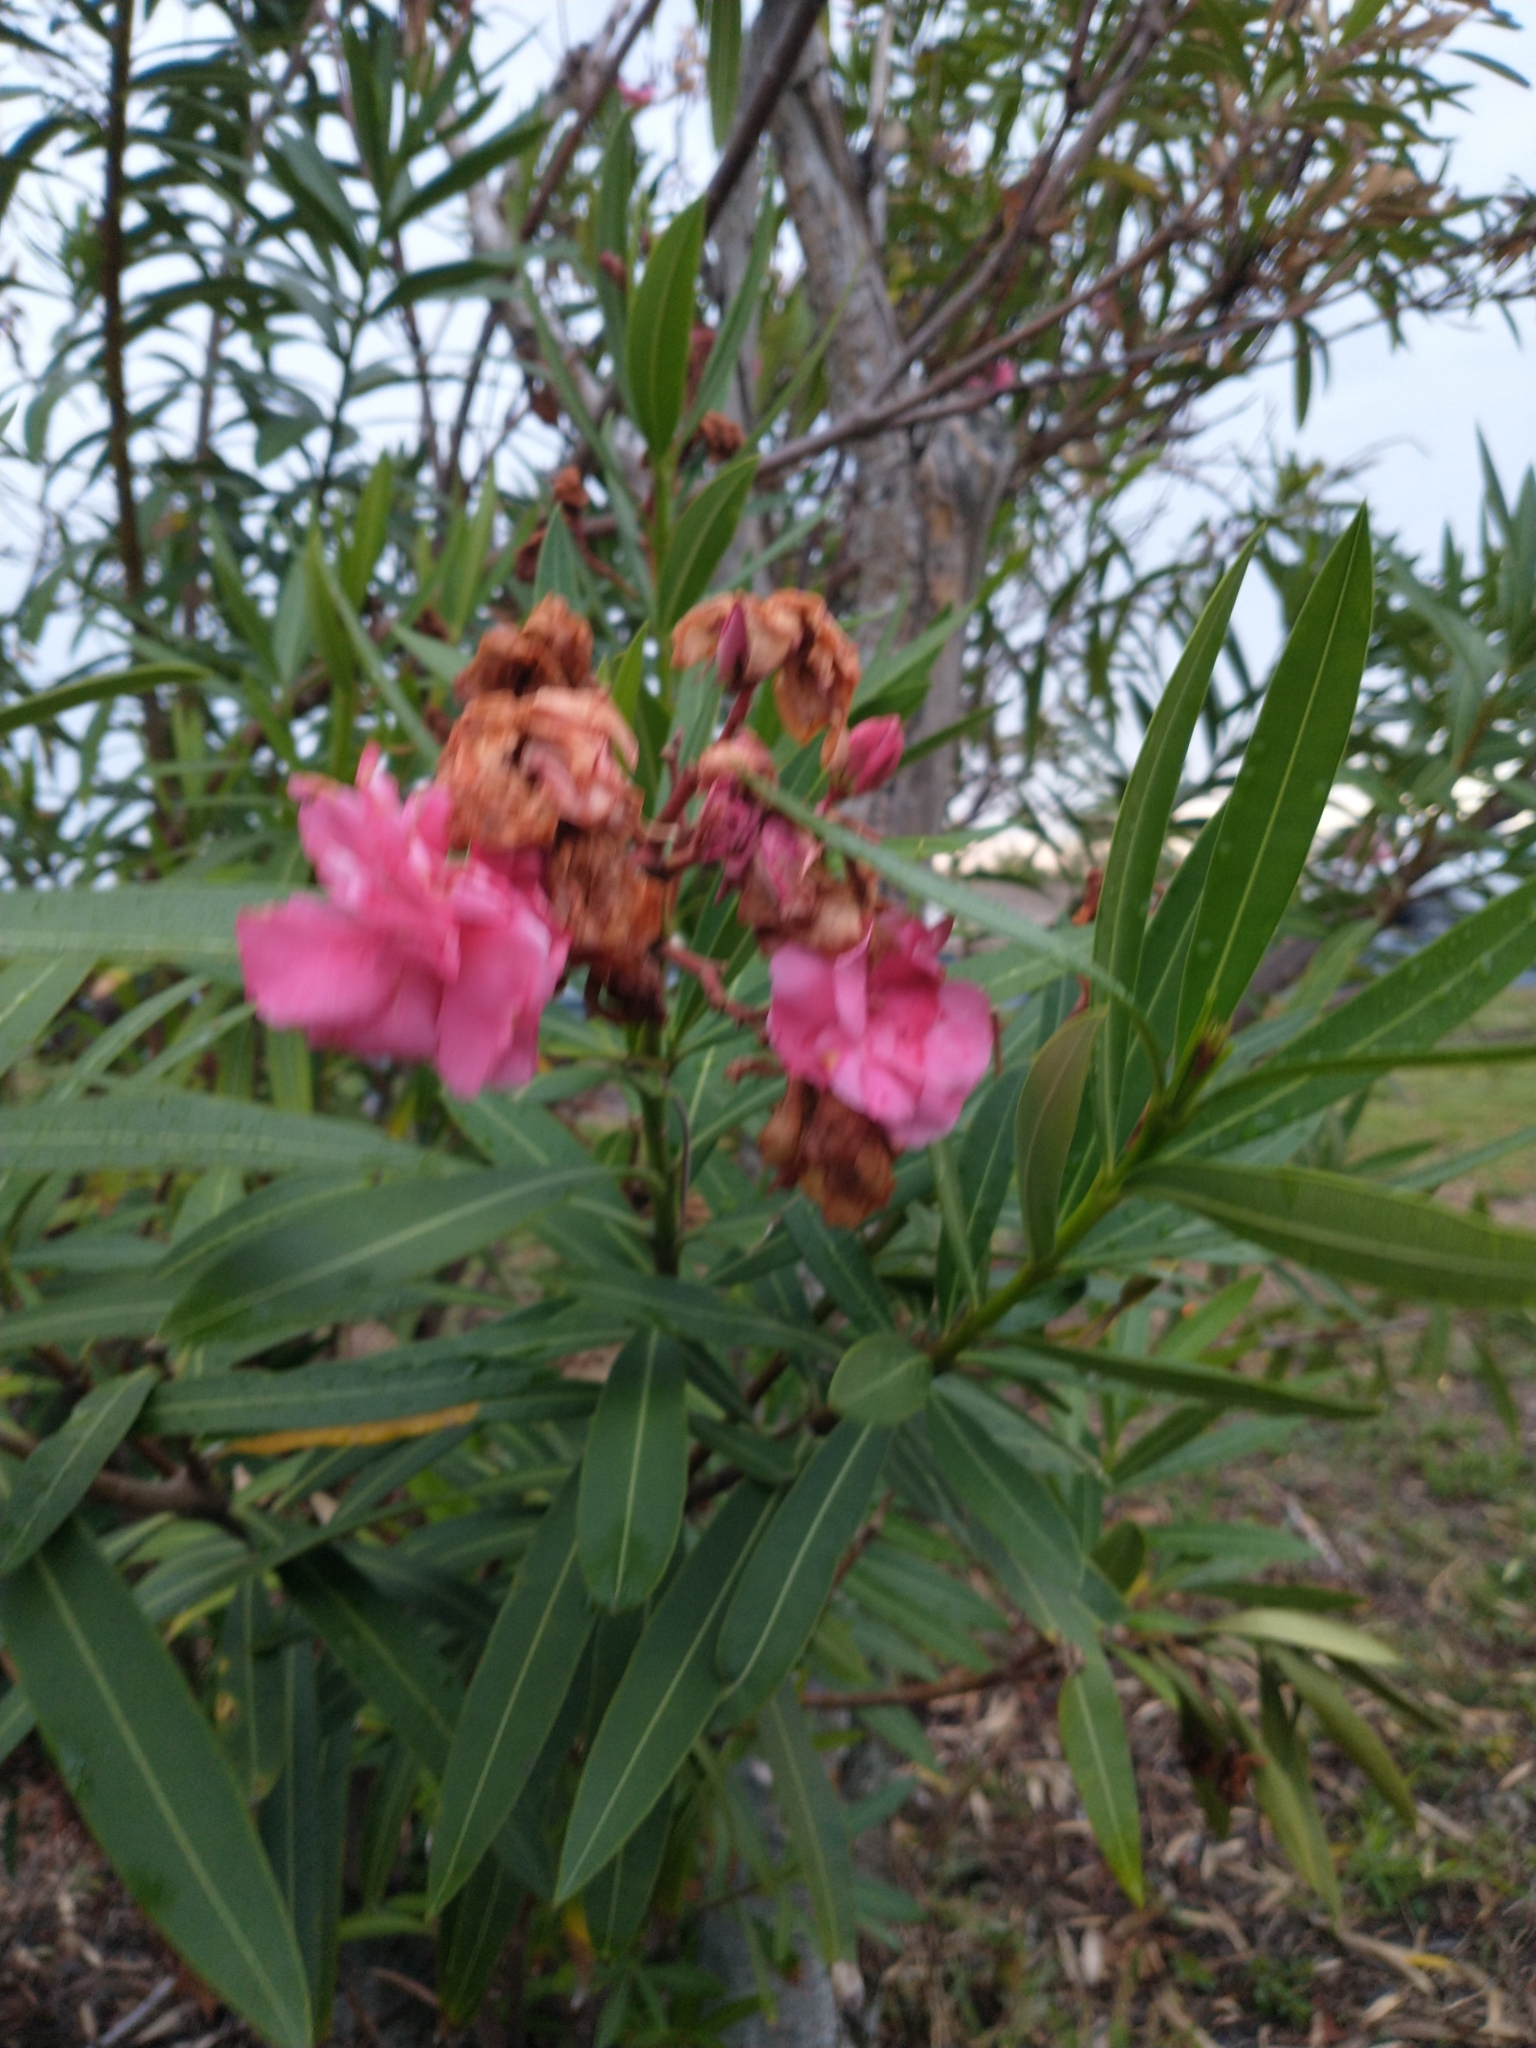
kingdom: Plantae
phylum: Tracheophyta
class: Magnoliopsida
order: Gentianales
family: Apocynaceae
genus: Nerium
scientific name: Nerium oleander
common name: Oleander
